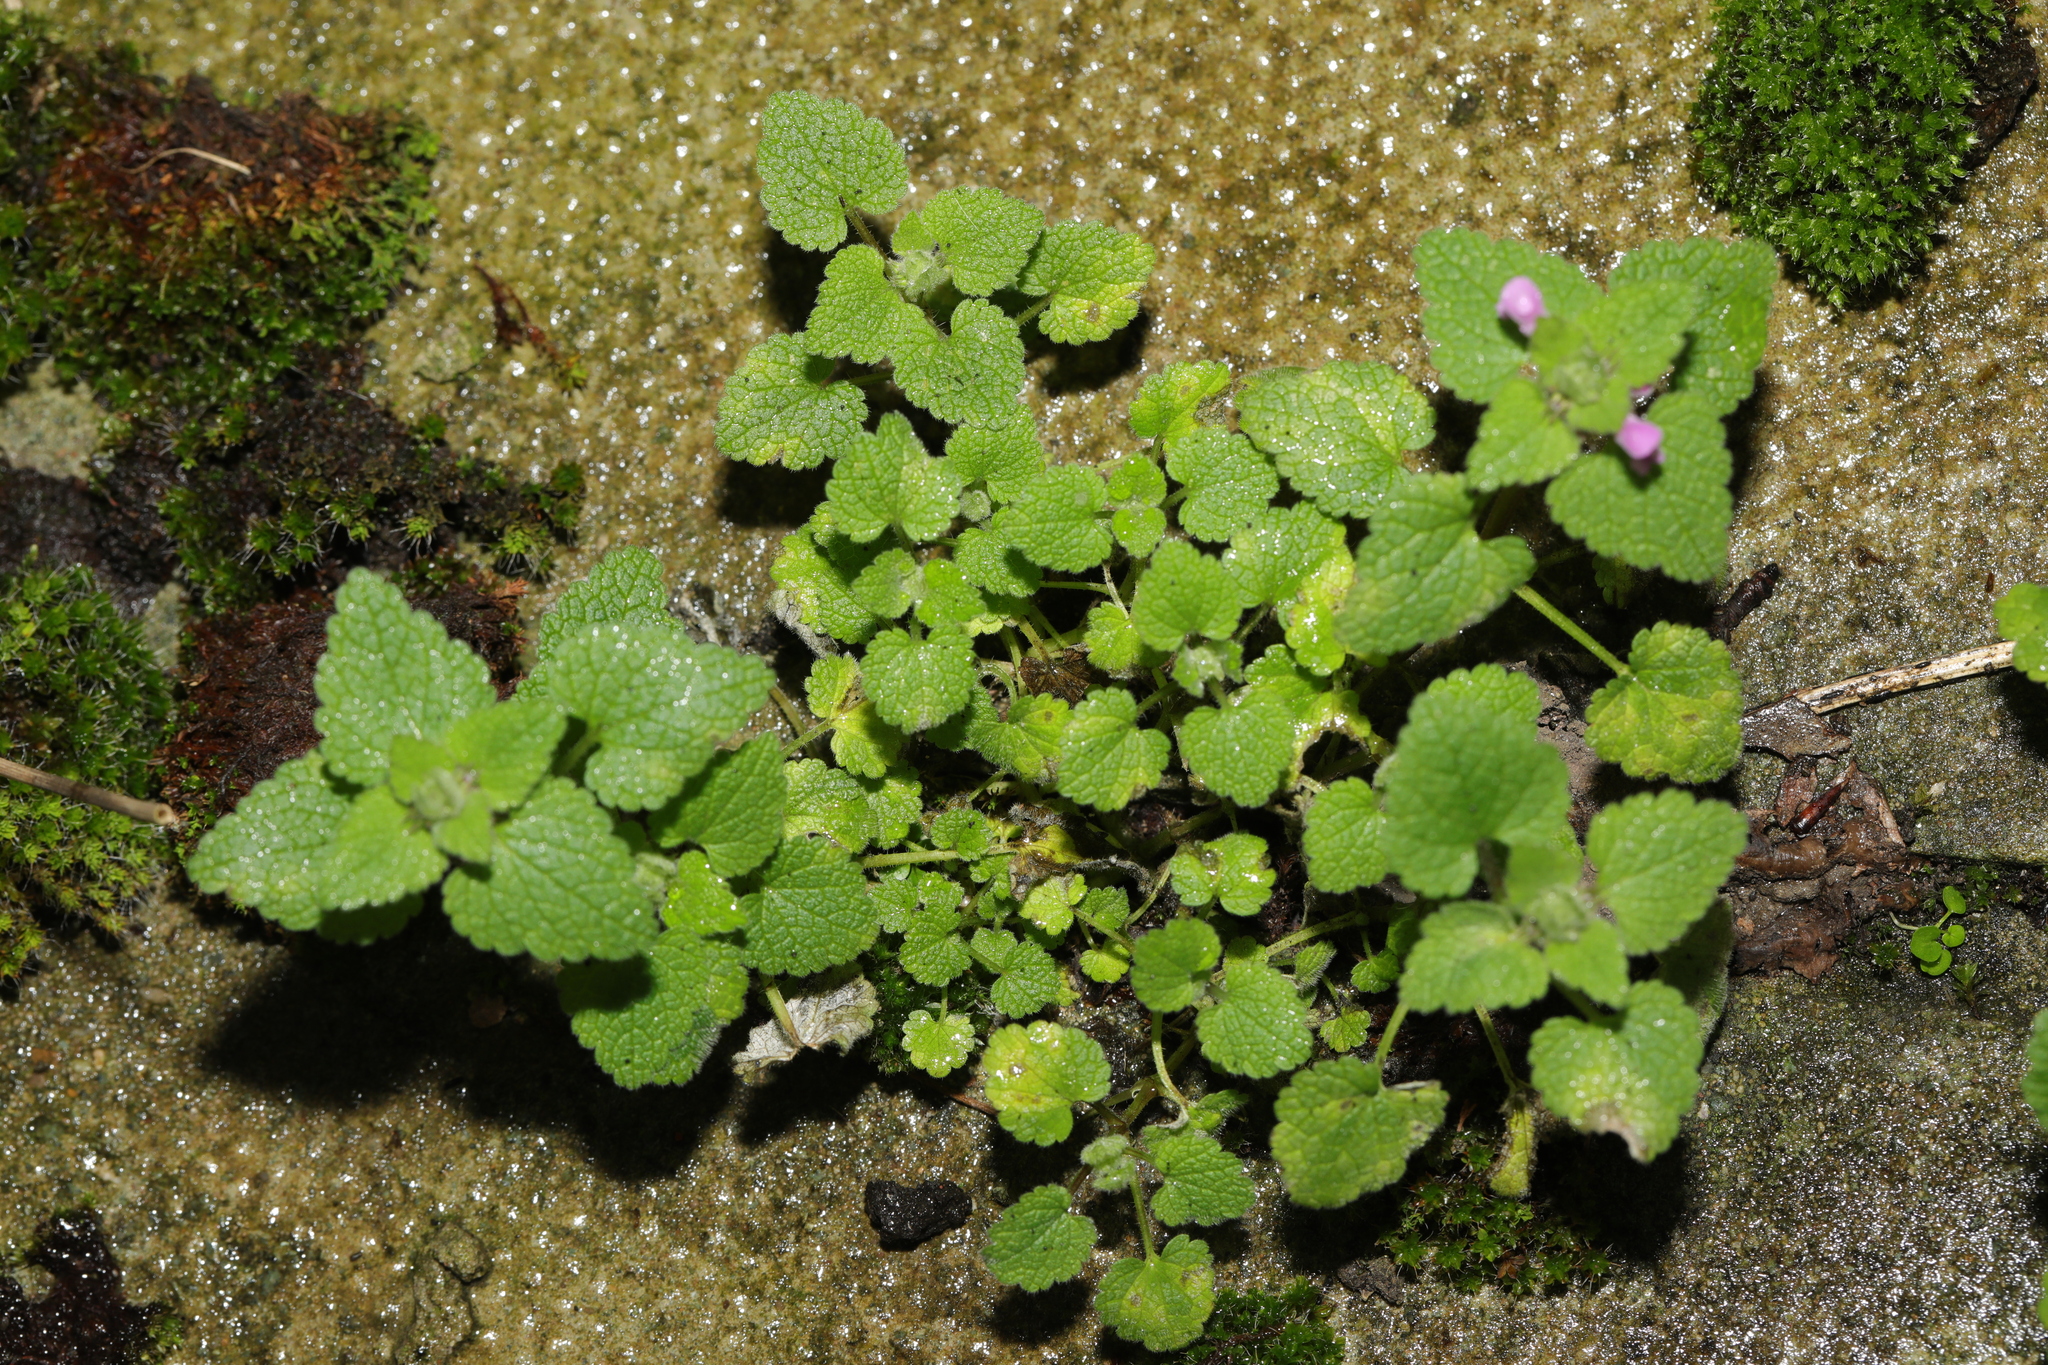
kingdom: Plantae
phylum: Tracheophyta
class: Magnoliopsida
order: Lamiales
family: Lamiaceae
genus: Lamium
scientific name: Lamium purpureum
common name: Red dead-nettle
